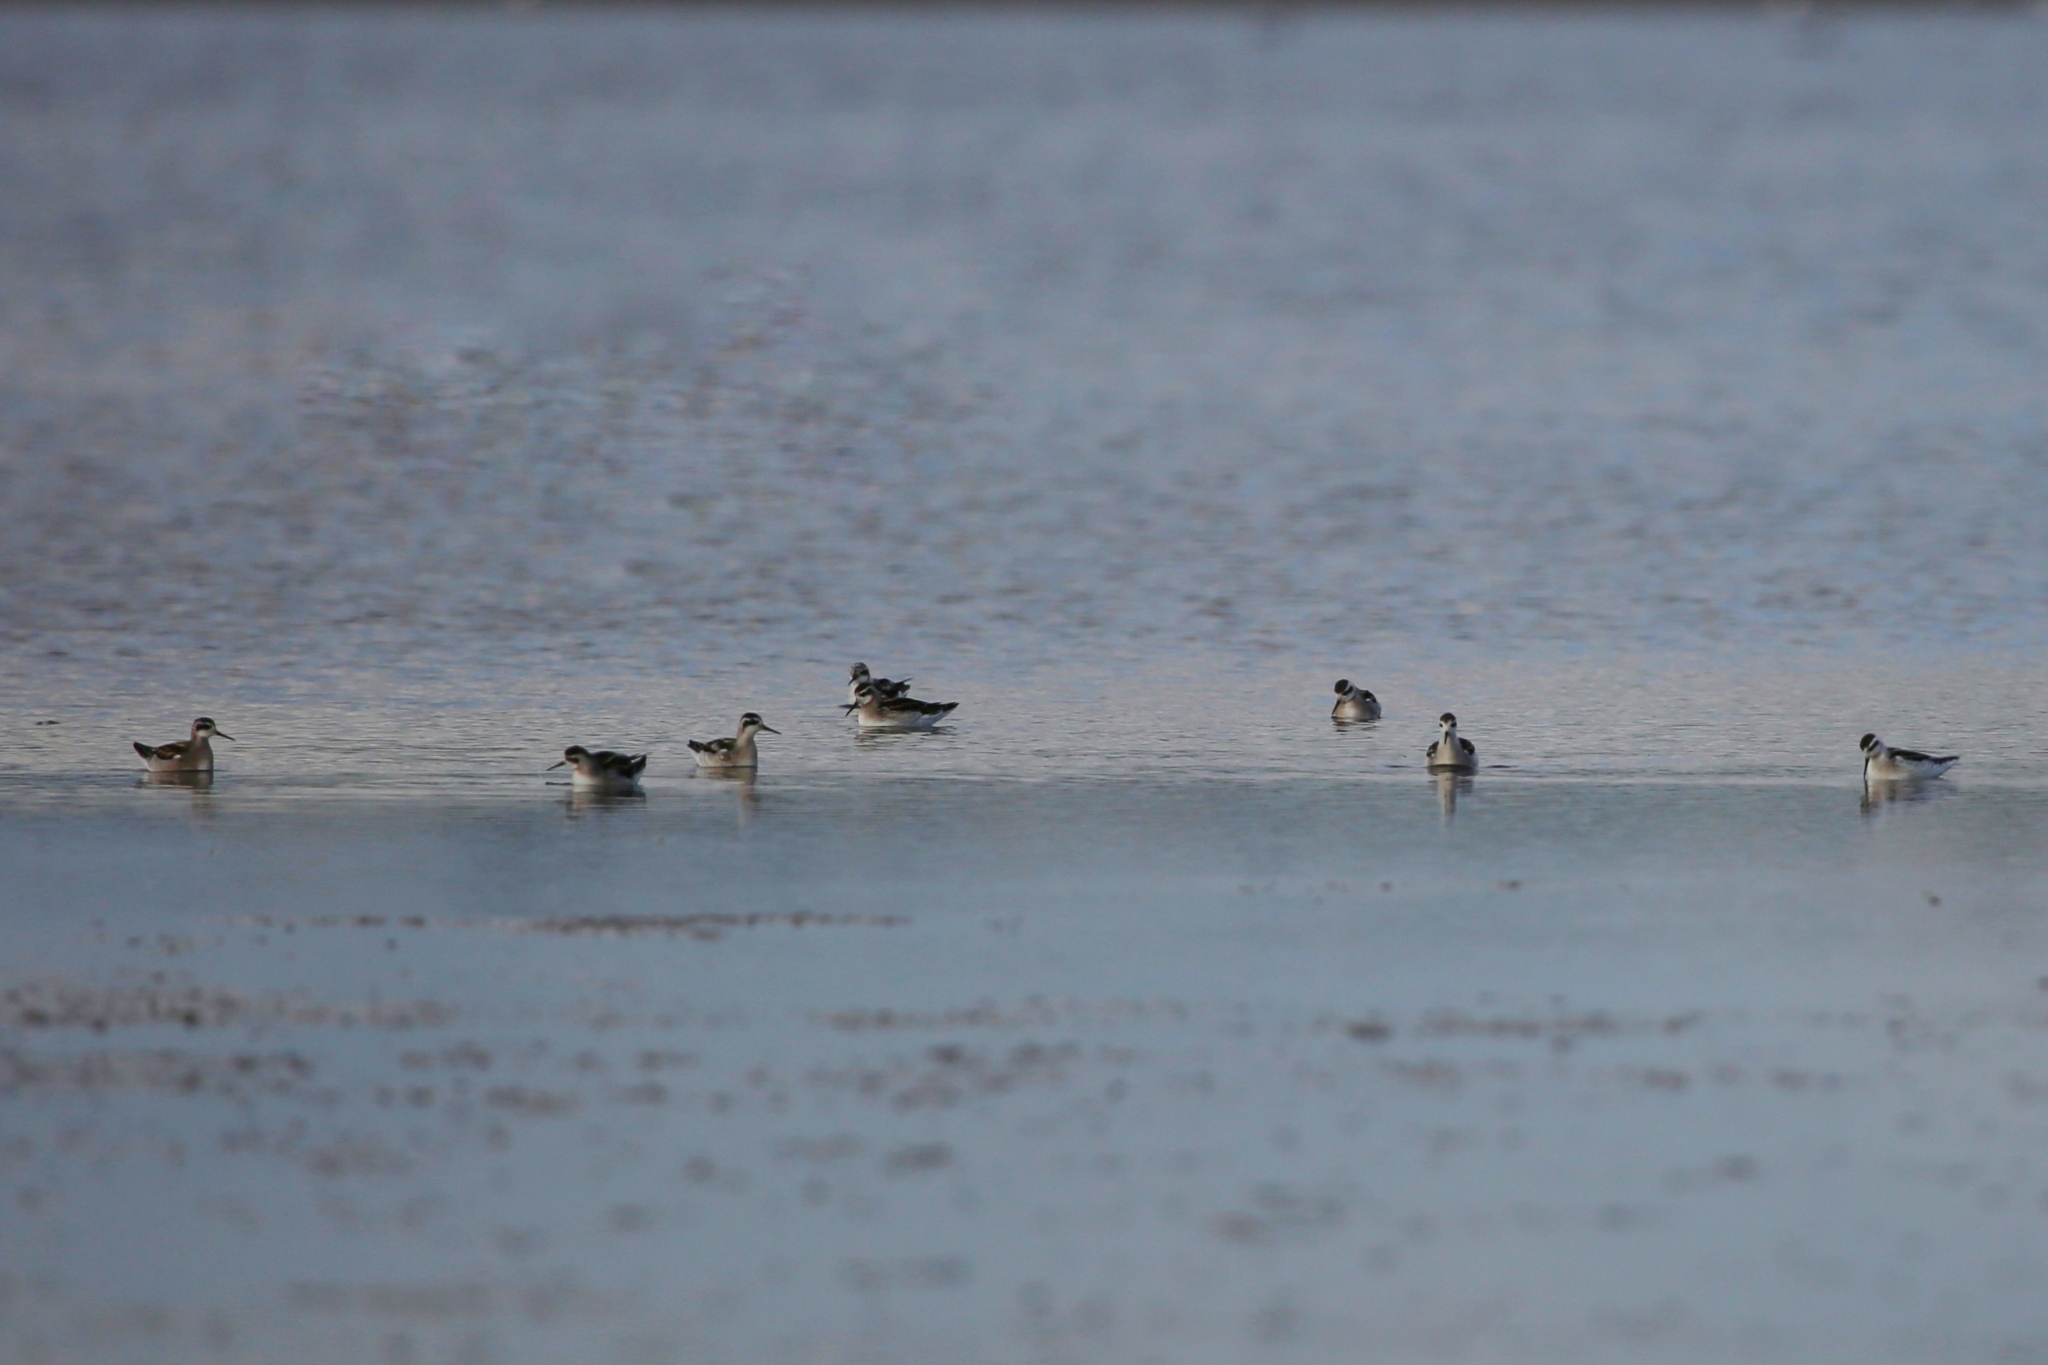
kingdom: Animalia
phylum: Chordata
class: Aves
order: Charadriiformes
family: Scolopacidae
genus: Phalaropus
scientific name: Phalaropus lobatus
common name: Red-necked phalarope
